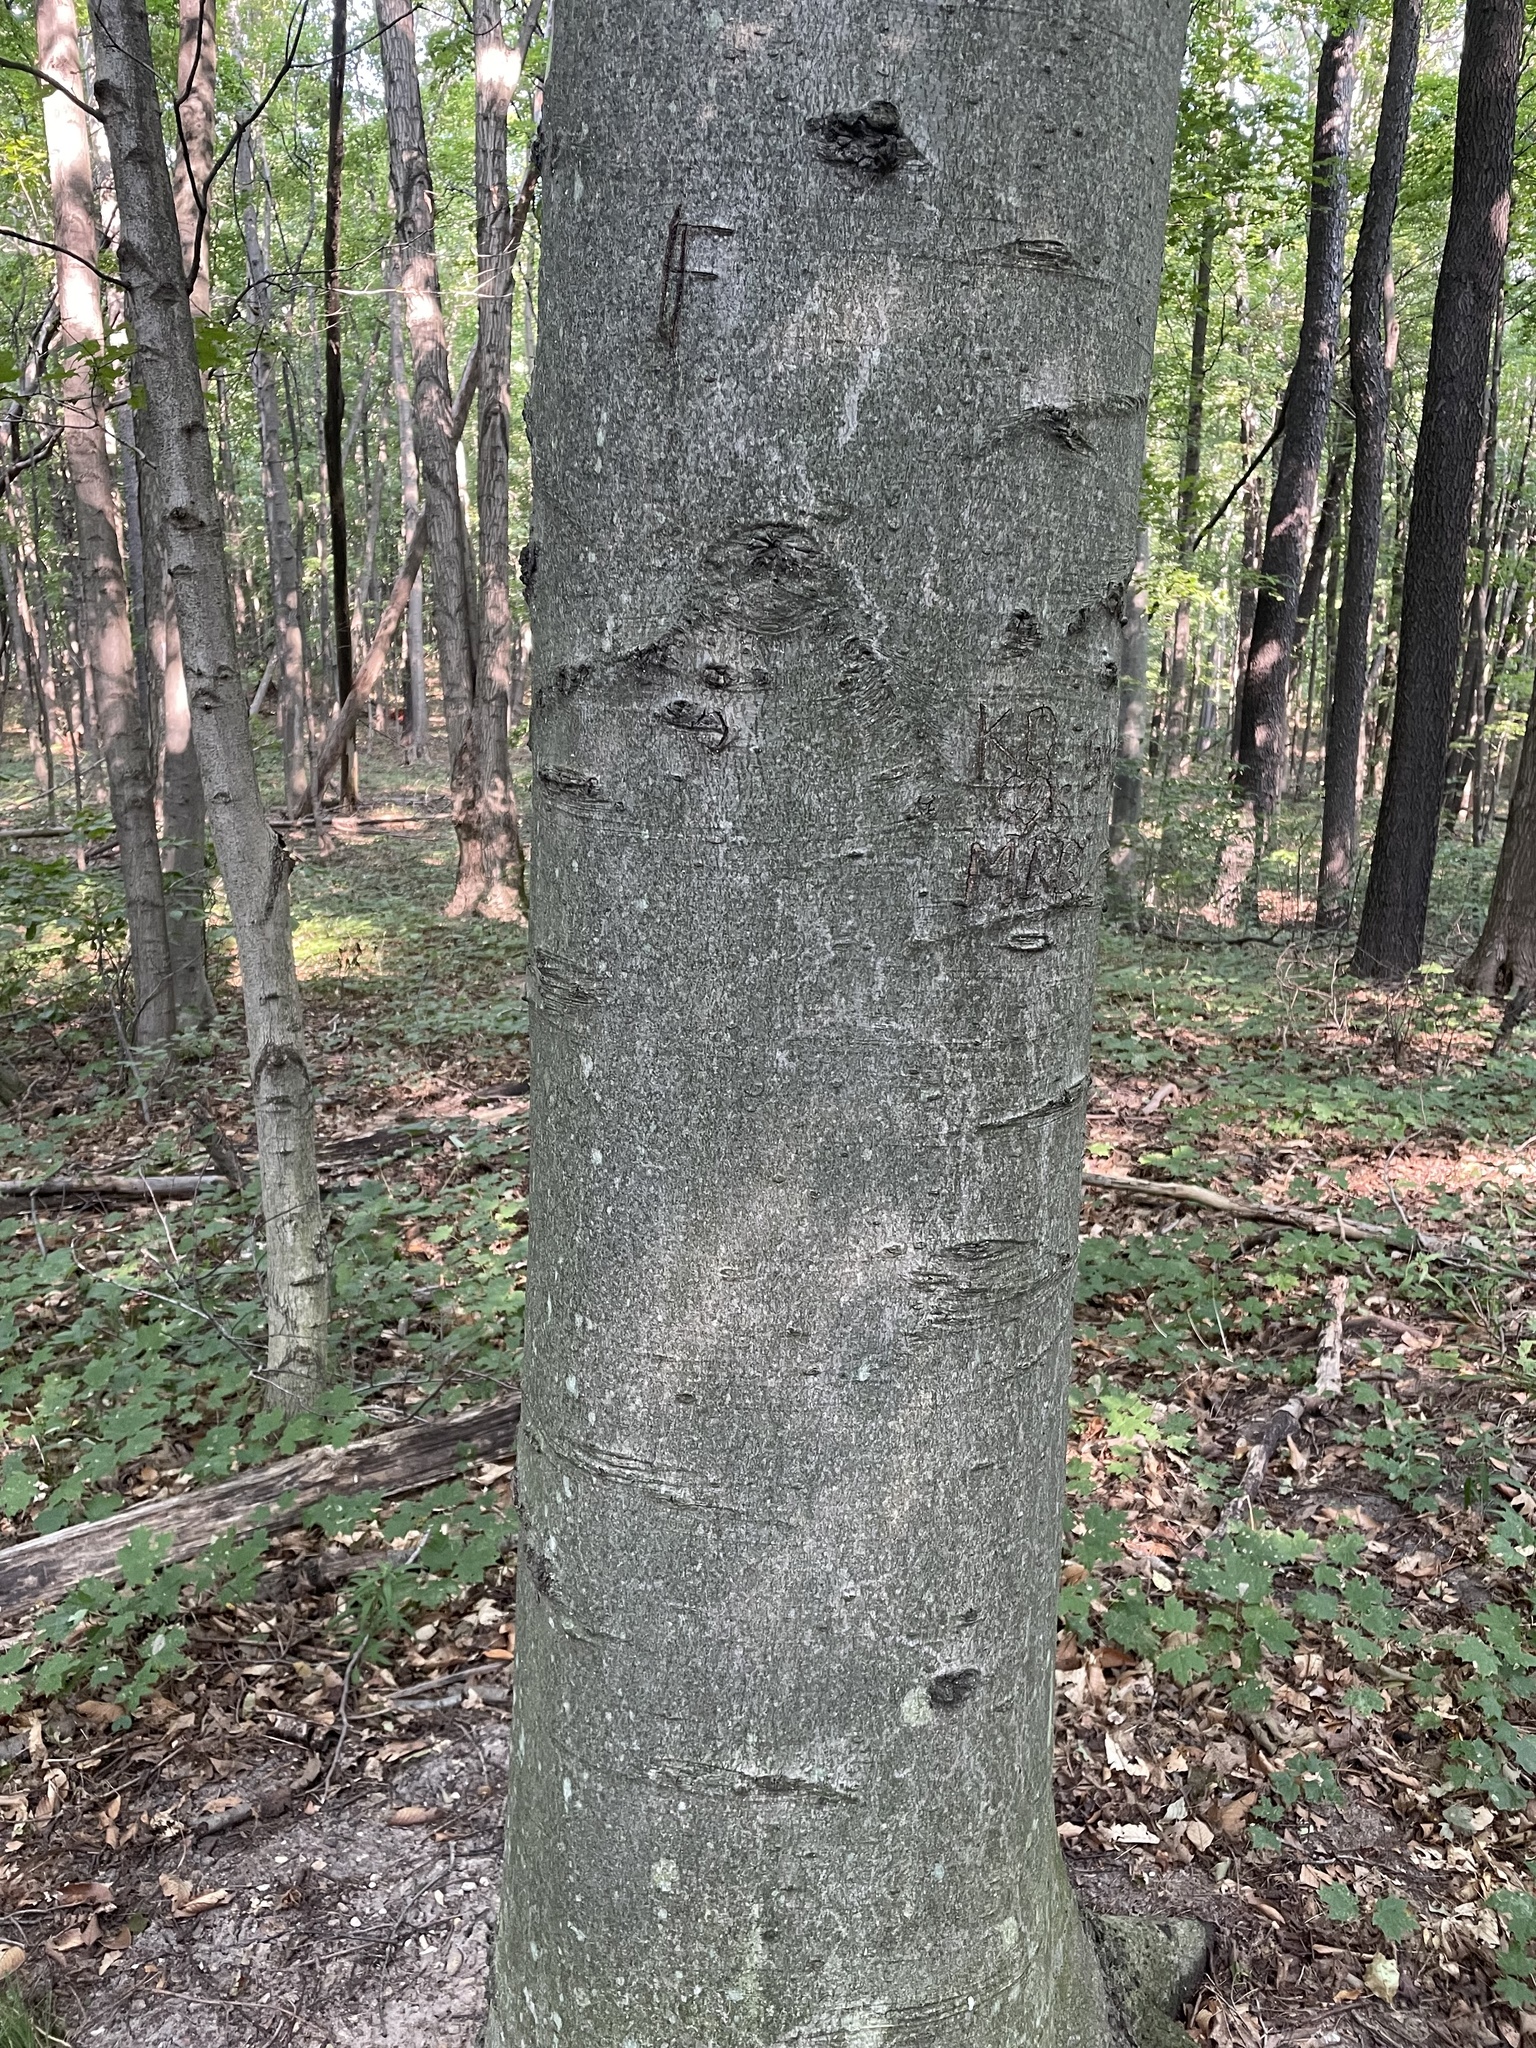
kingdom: Plantae
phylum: Tracheophyta
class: Magnoliopsida
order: Fagales
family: Fagaceae
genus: Fagus
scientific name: Fagus grandifolia
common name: American beech
